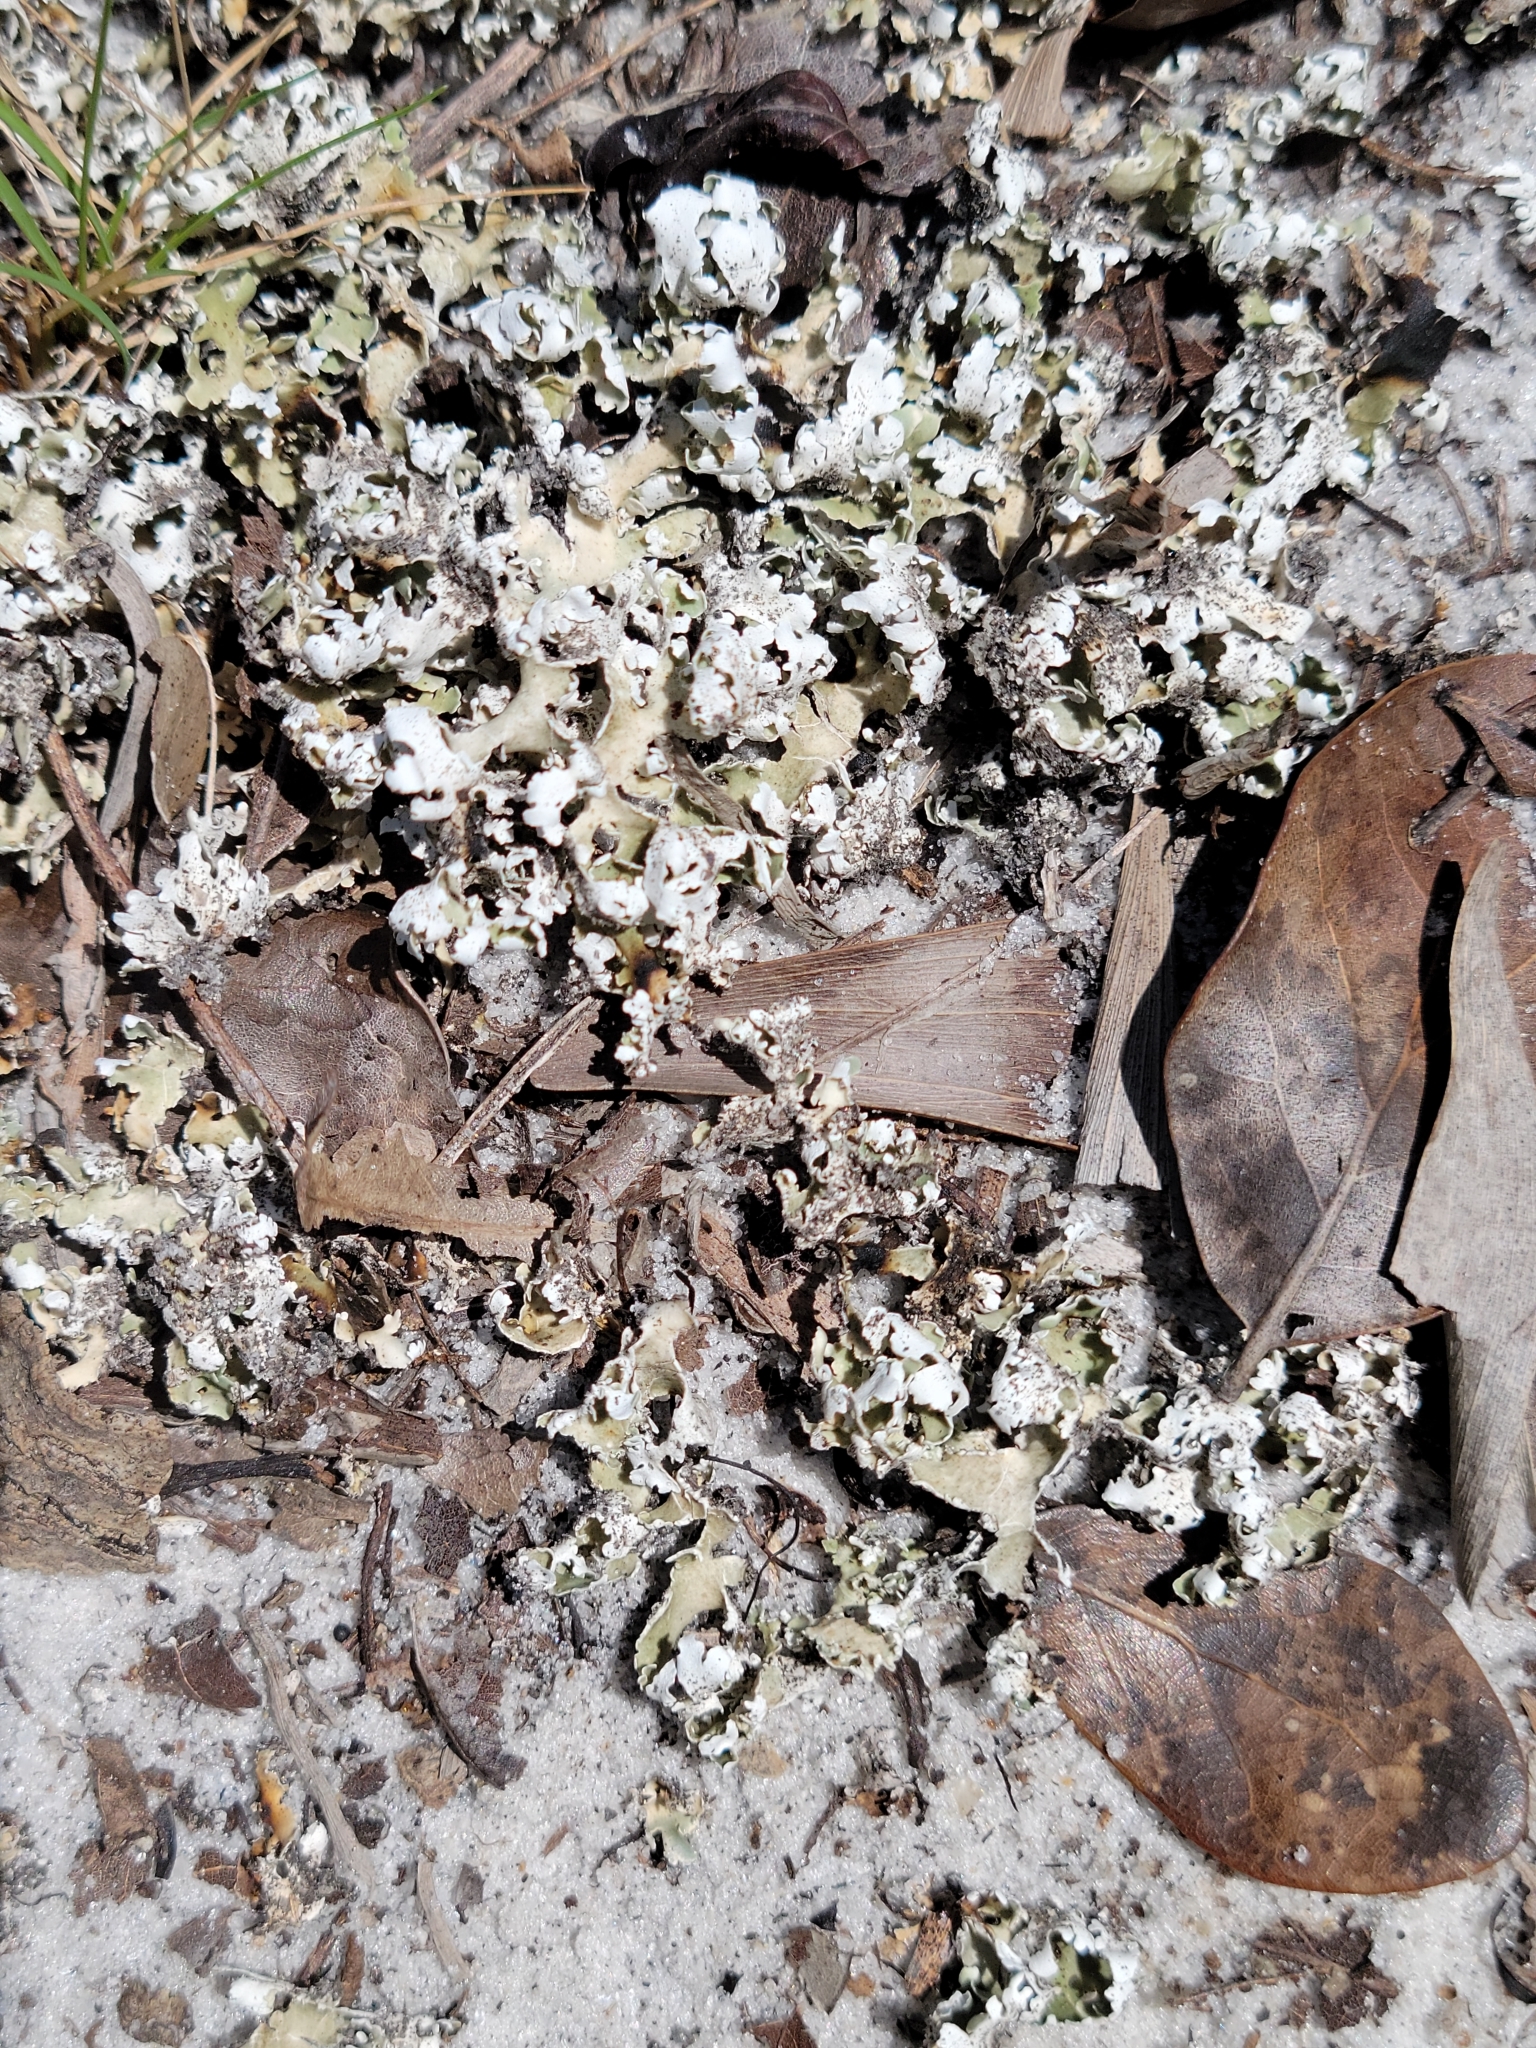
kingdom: Fungi
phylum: Ascomycota
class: Lecanoromycetes
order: Lecanorales
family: Cladoniaceae
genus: Cladonia
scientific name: Cladonia prostrata
